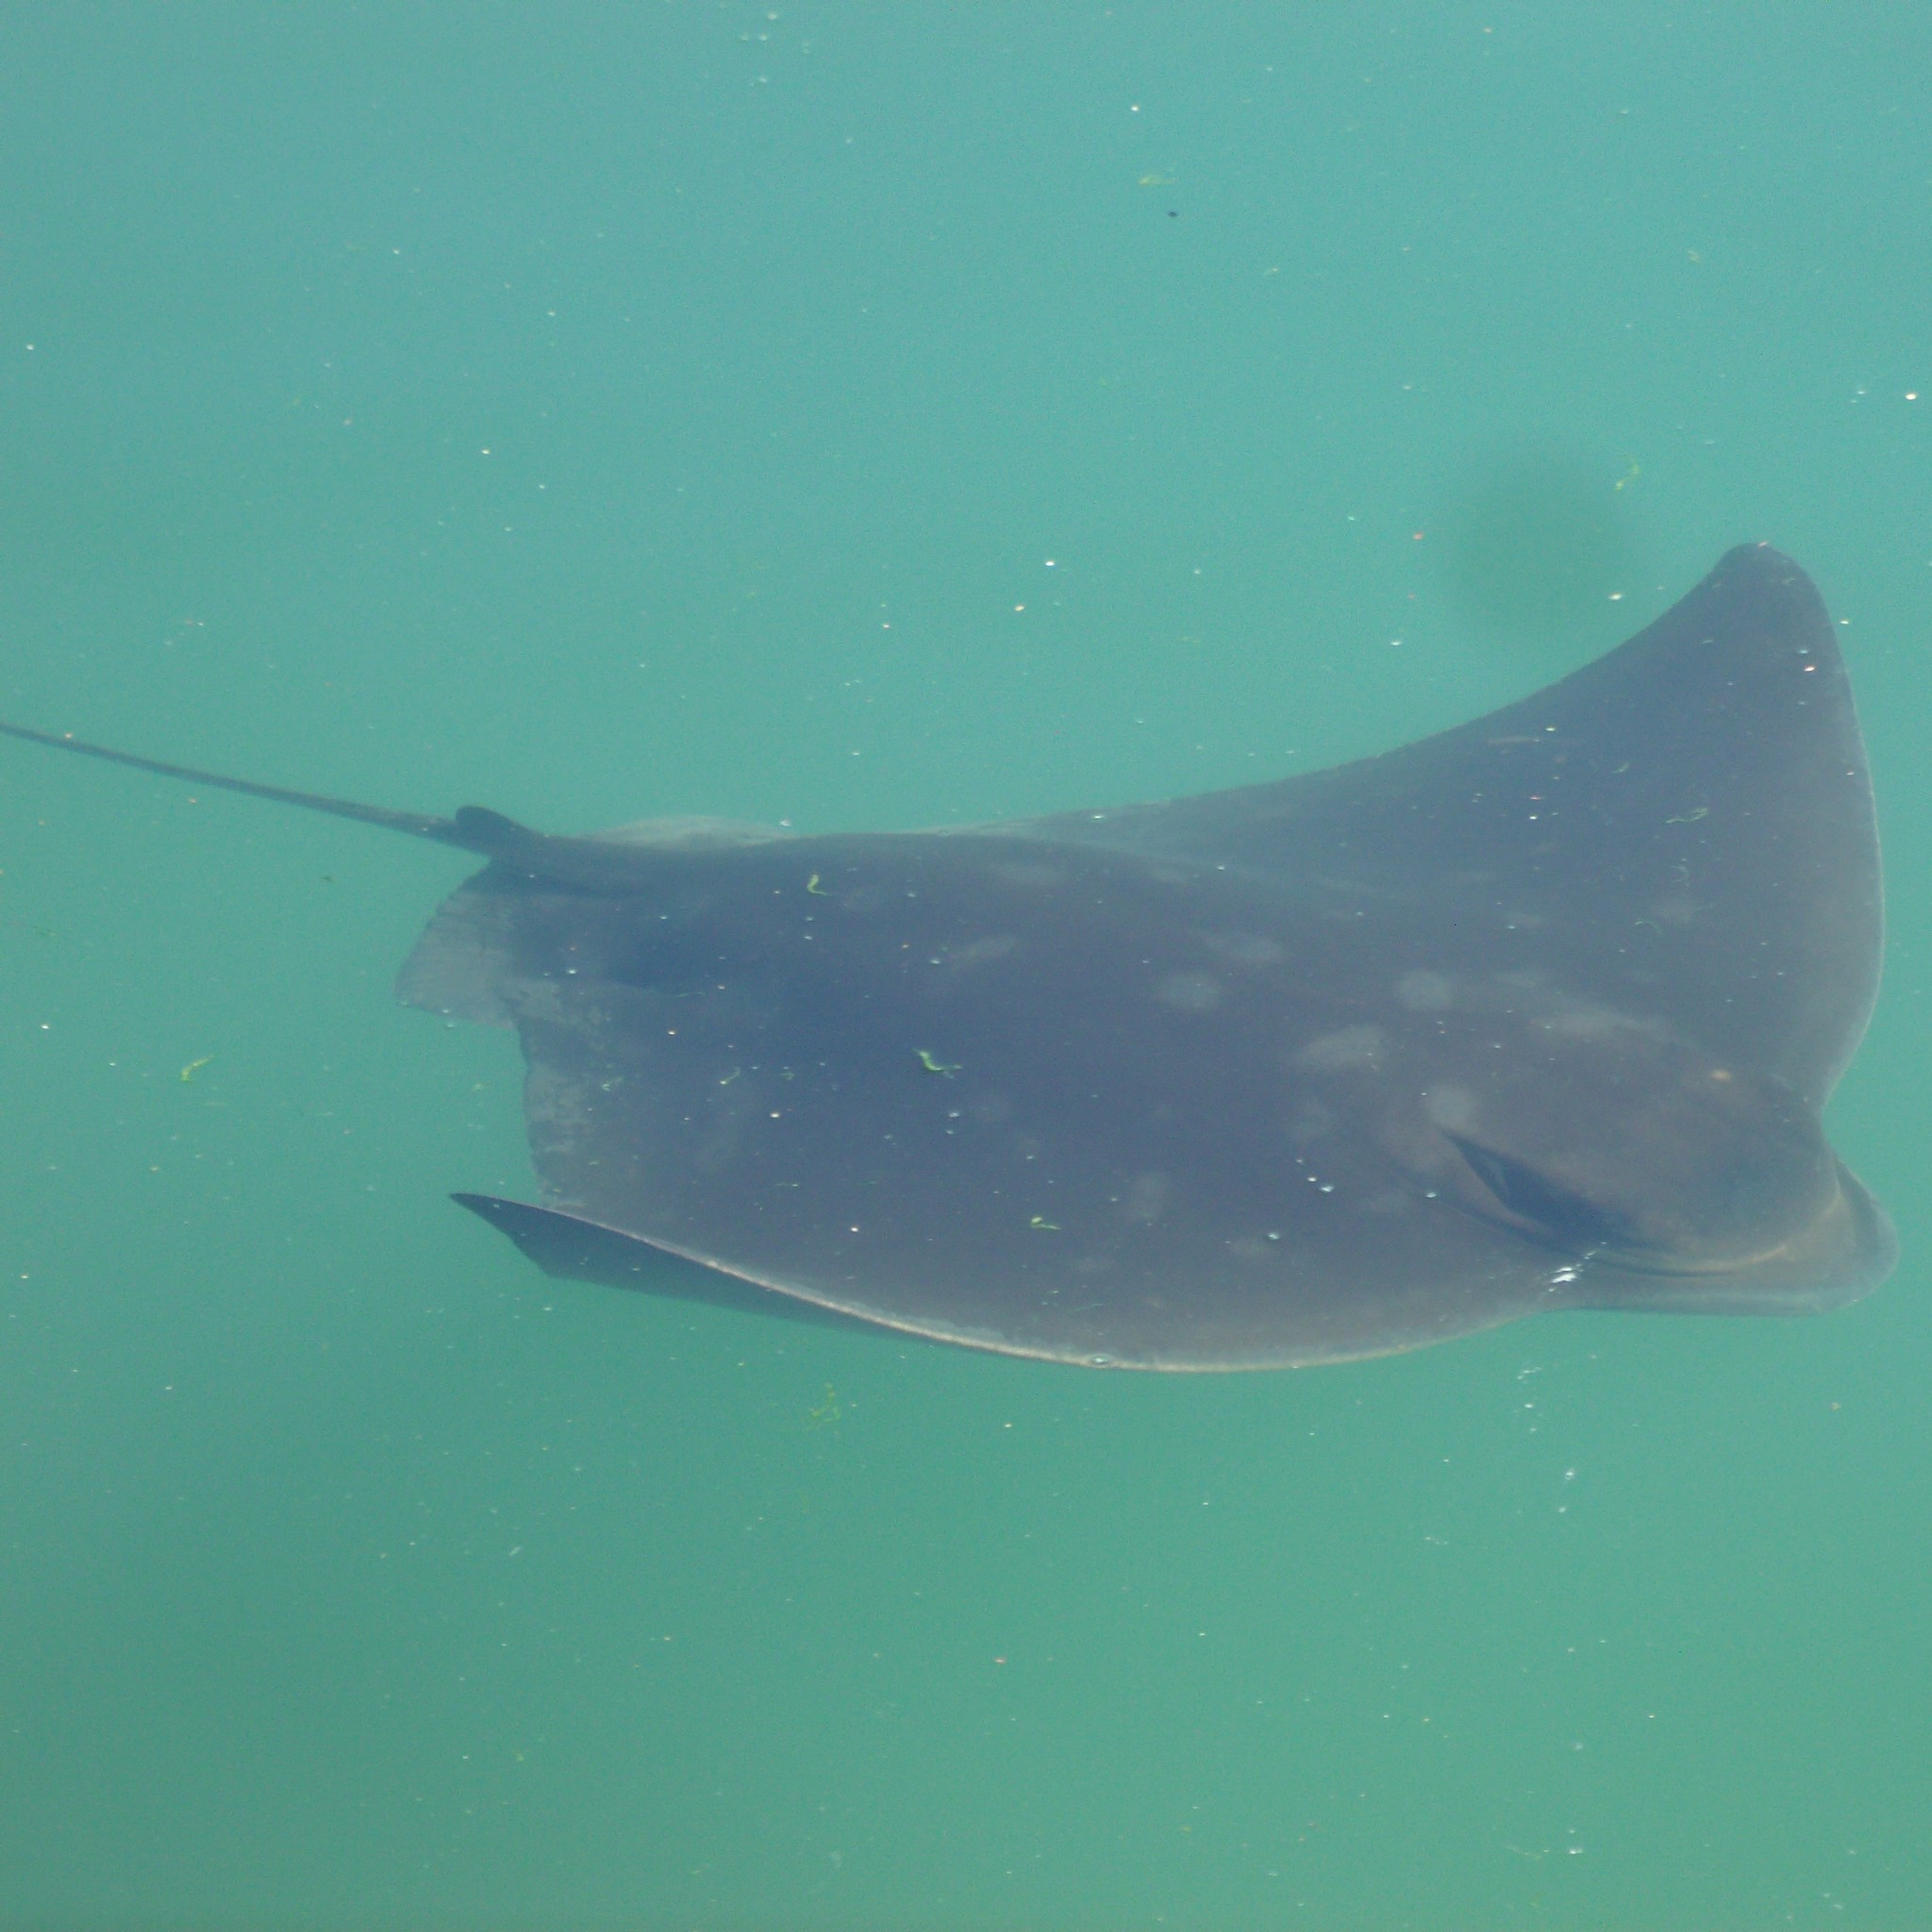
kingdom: Animalia
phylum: Chordata
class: Elasmobranchii
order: Myliobatiformes
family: Myliobatidae
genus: Myliobatis
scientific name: Myliobatis tenuicaudatus
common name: Eagle ray
